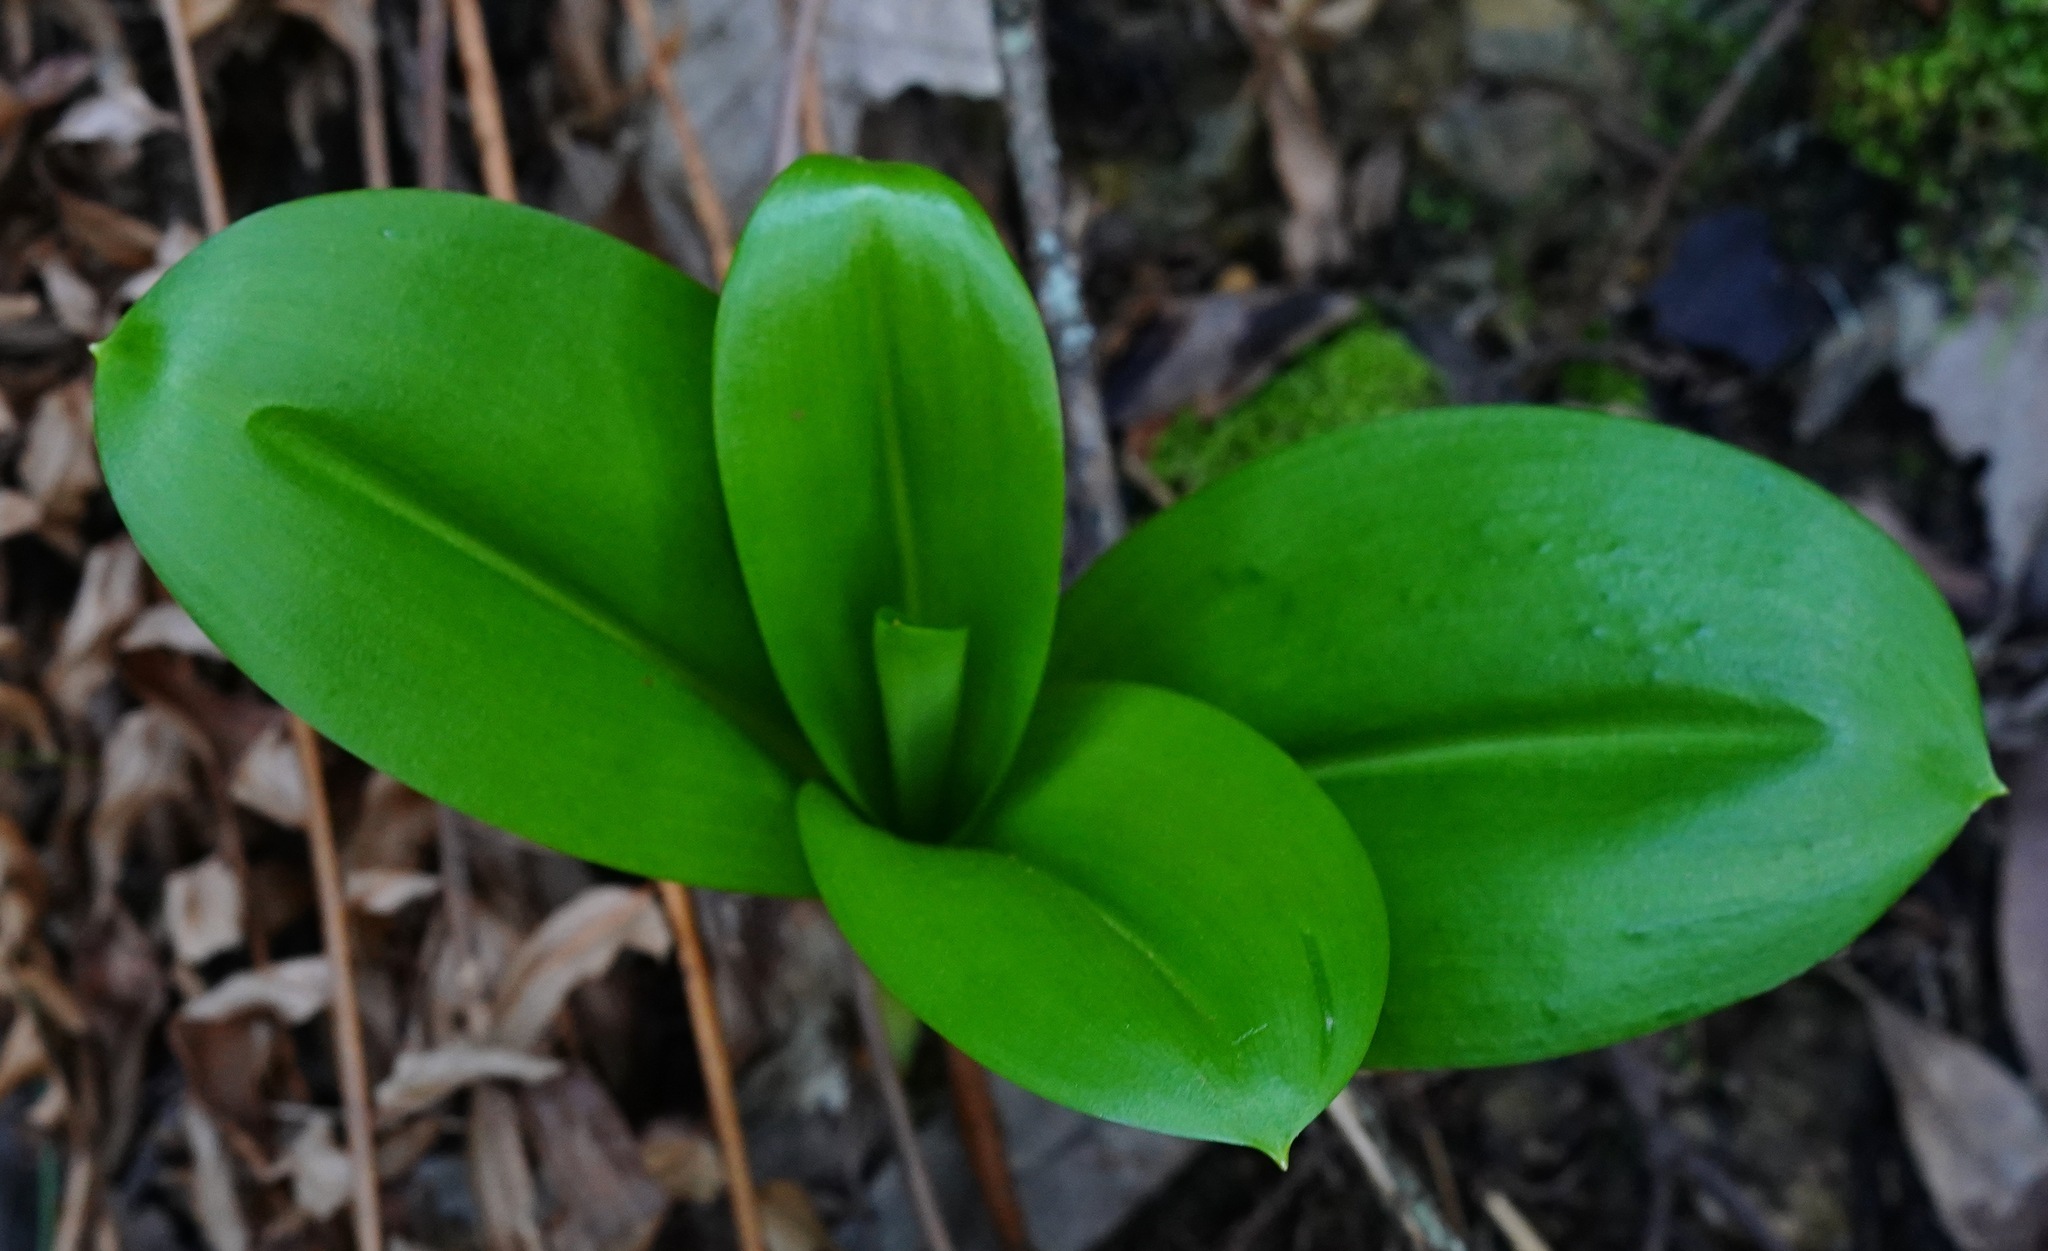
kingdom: Plantae
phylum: Tracheophyta
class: Liliopsida
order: Liliales
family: Liliaceae
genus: Clintonia
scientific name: Clintonia andrewsiana
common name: Red clintonia
